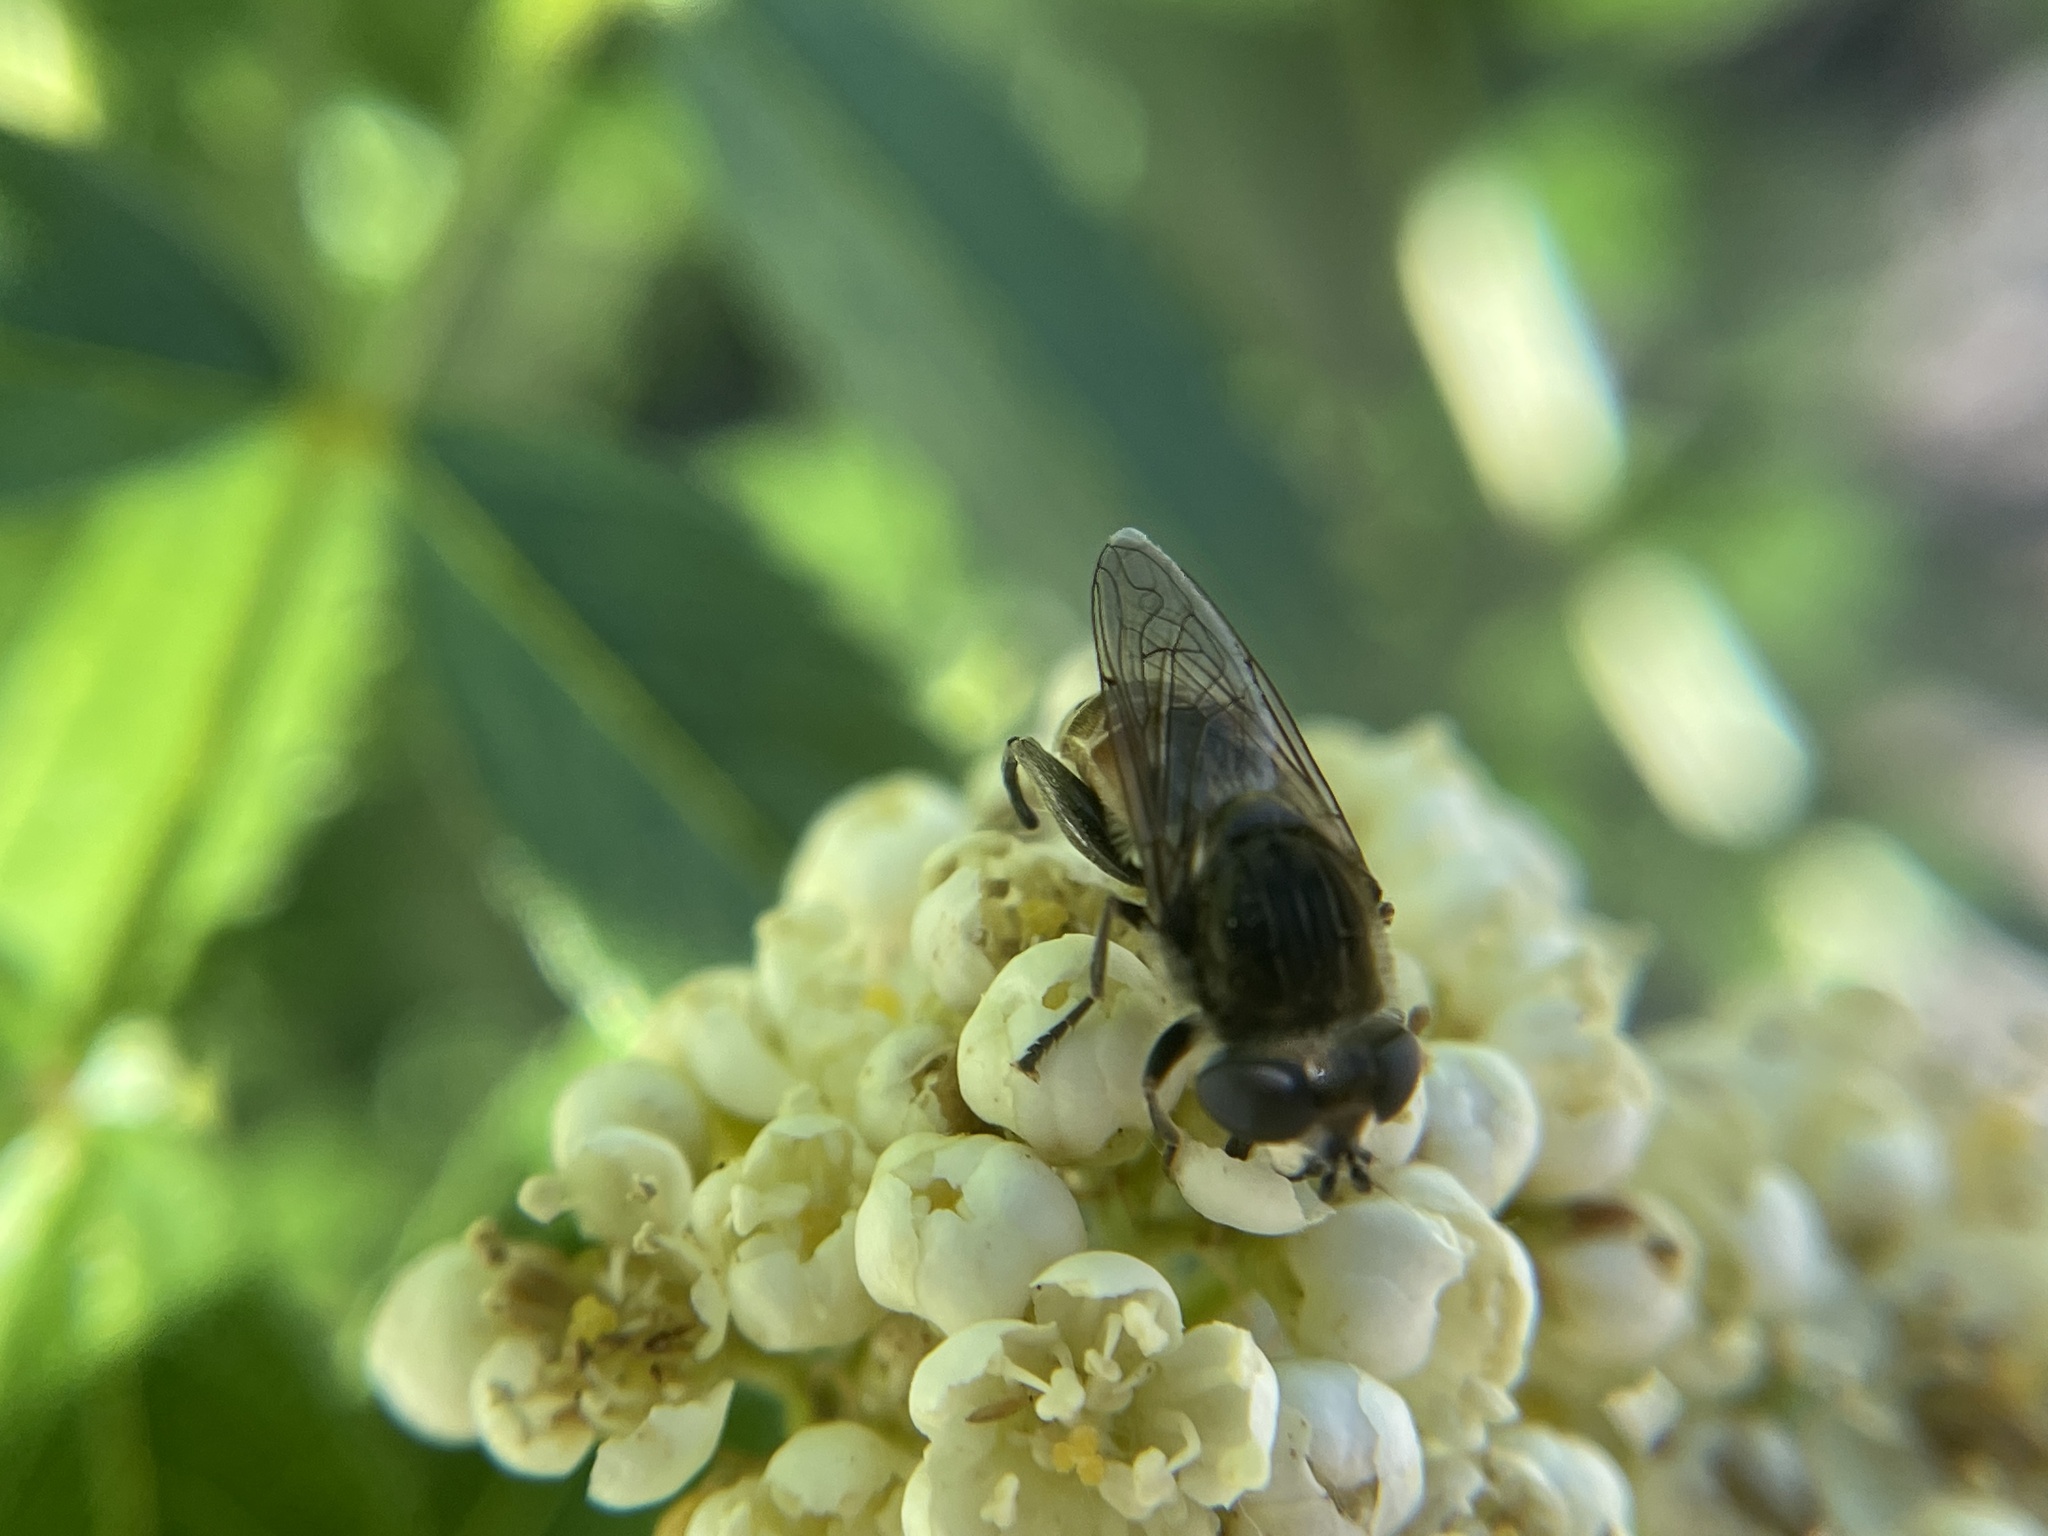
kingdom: Animalia
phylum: Arthropoda
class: Insecta
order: Diptera
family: Syrphidae
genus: Asemosyrphus
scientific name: Asemosyrphus polygrammus
